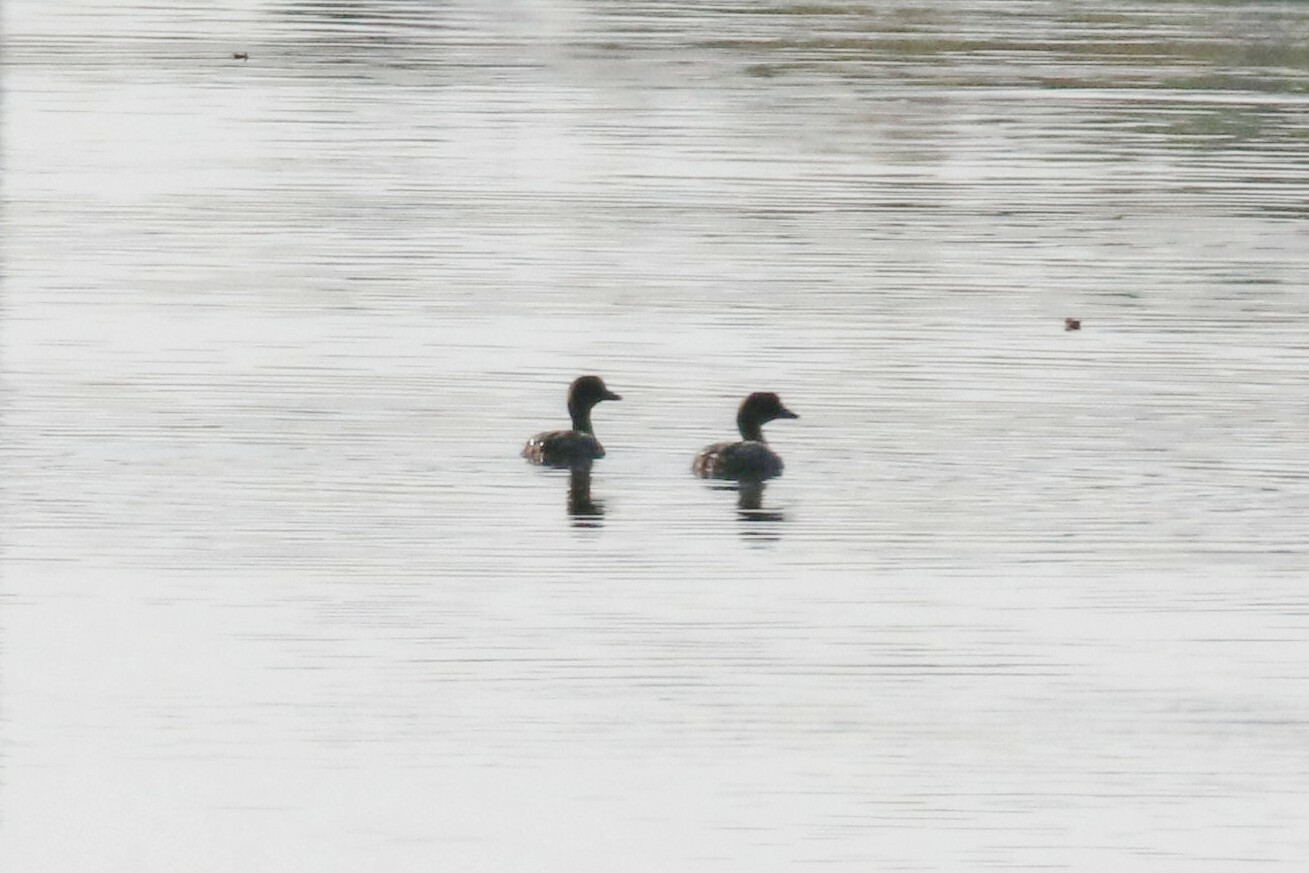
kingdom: Animalia
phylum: Chordata
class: Aves
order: Anseriformes
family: Anatidae
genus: Bucephala
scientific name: Bucephala clangula
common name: Common goldeneye
